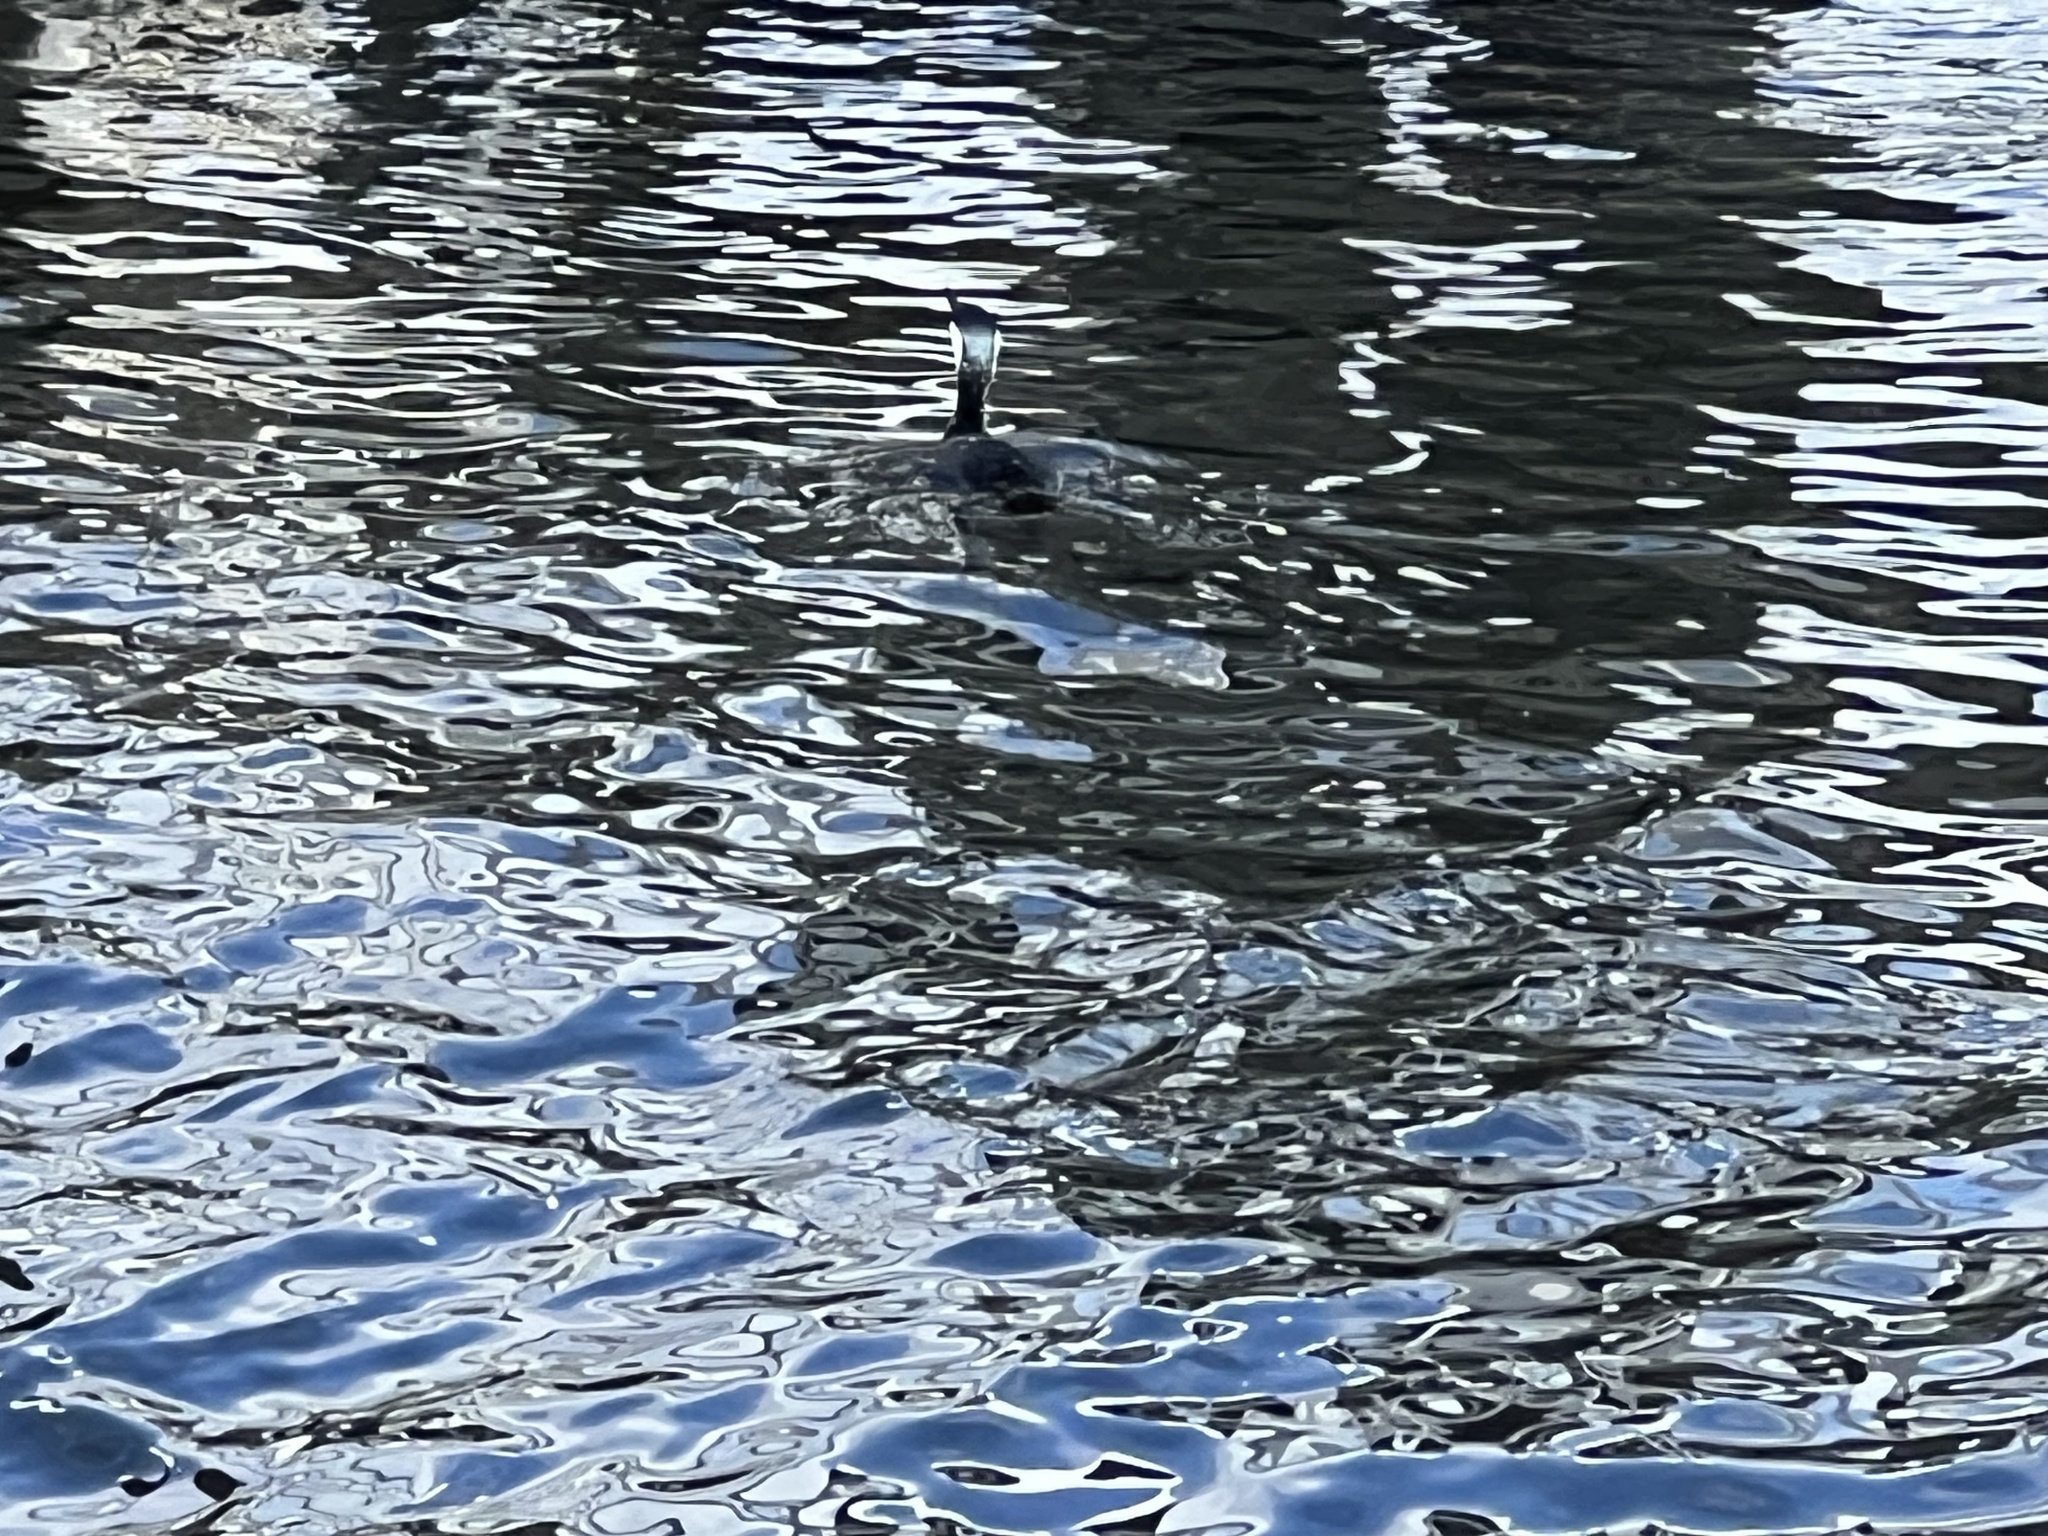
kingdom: Animalia
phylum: Chordata
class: Aves
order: Suliformes
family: Phalacrocoracidae
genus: Phalacrocorax
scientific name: Phalacrocorax fuscescens
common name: Black-faced cormorant
